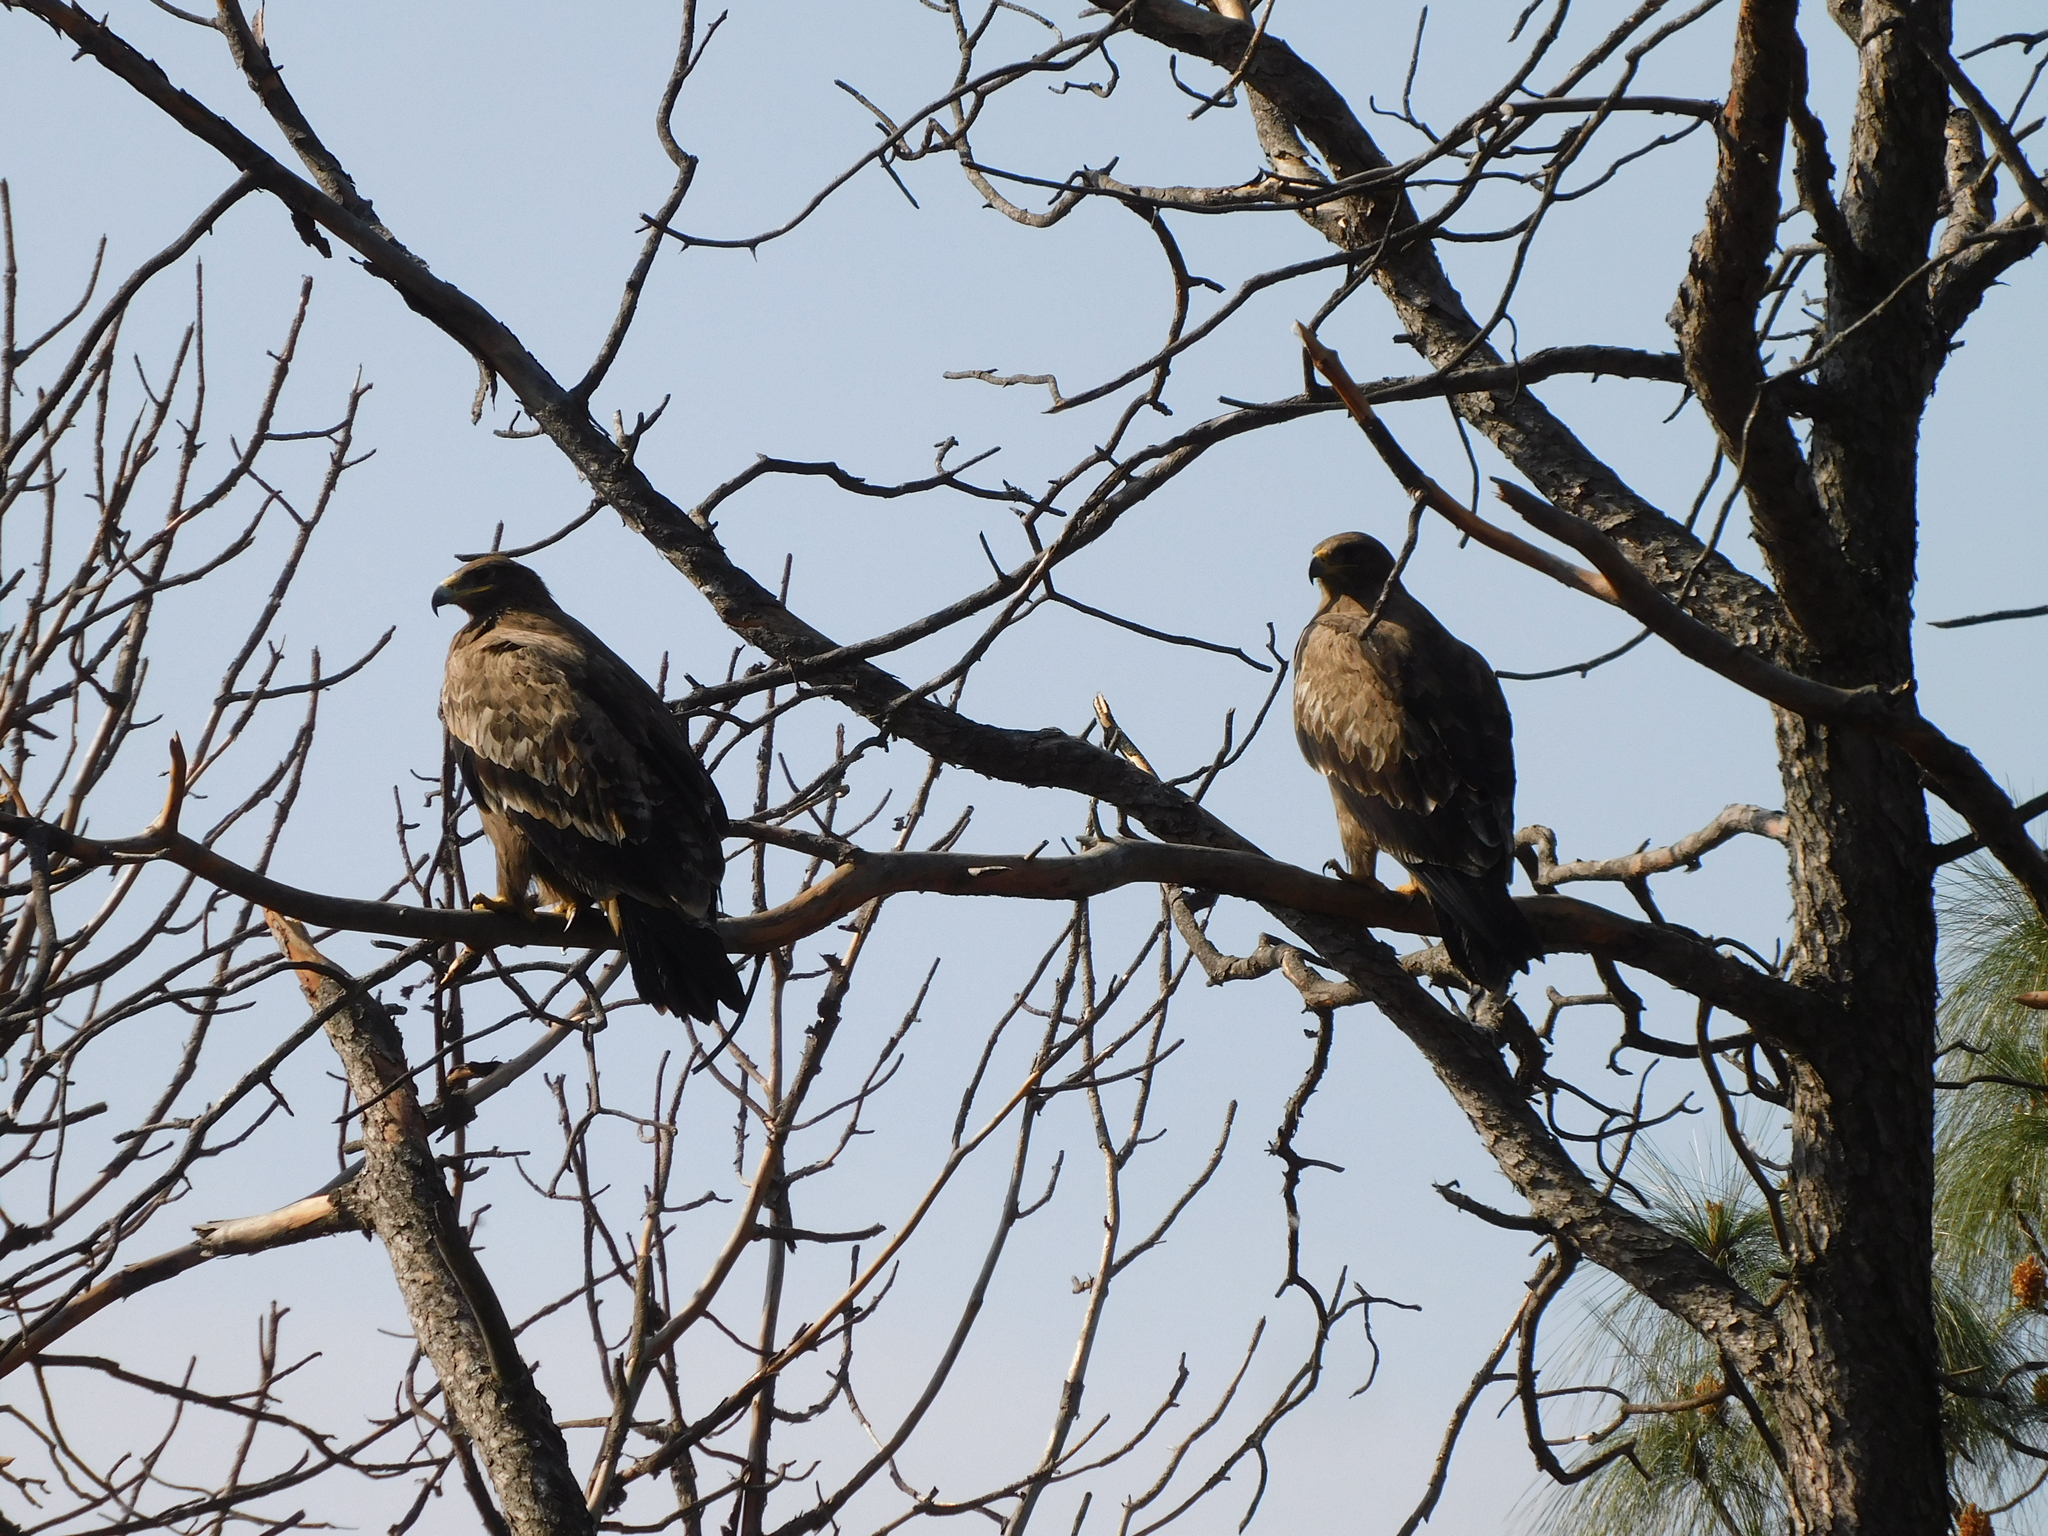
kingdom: Animalia
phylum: Chordata
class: Aves
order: Accipitriformes
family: Accipitridae
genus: Aquila
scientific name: Aquila nipalensis
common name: Steppe eagle
